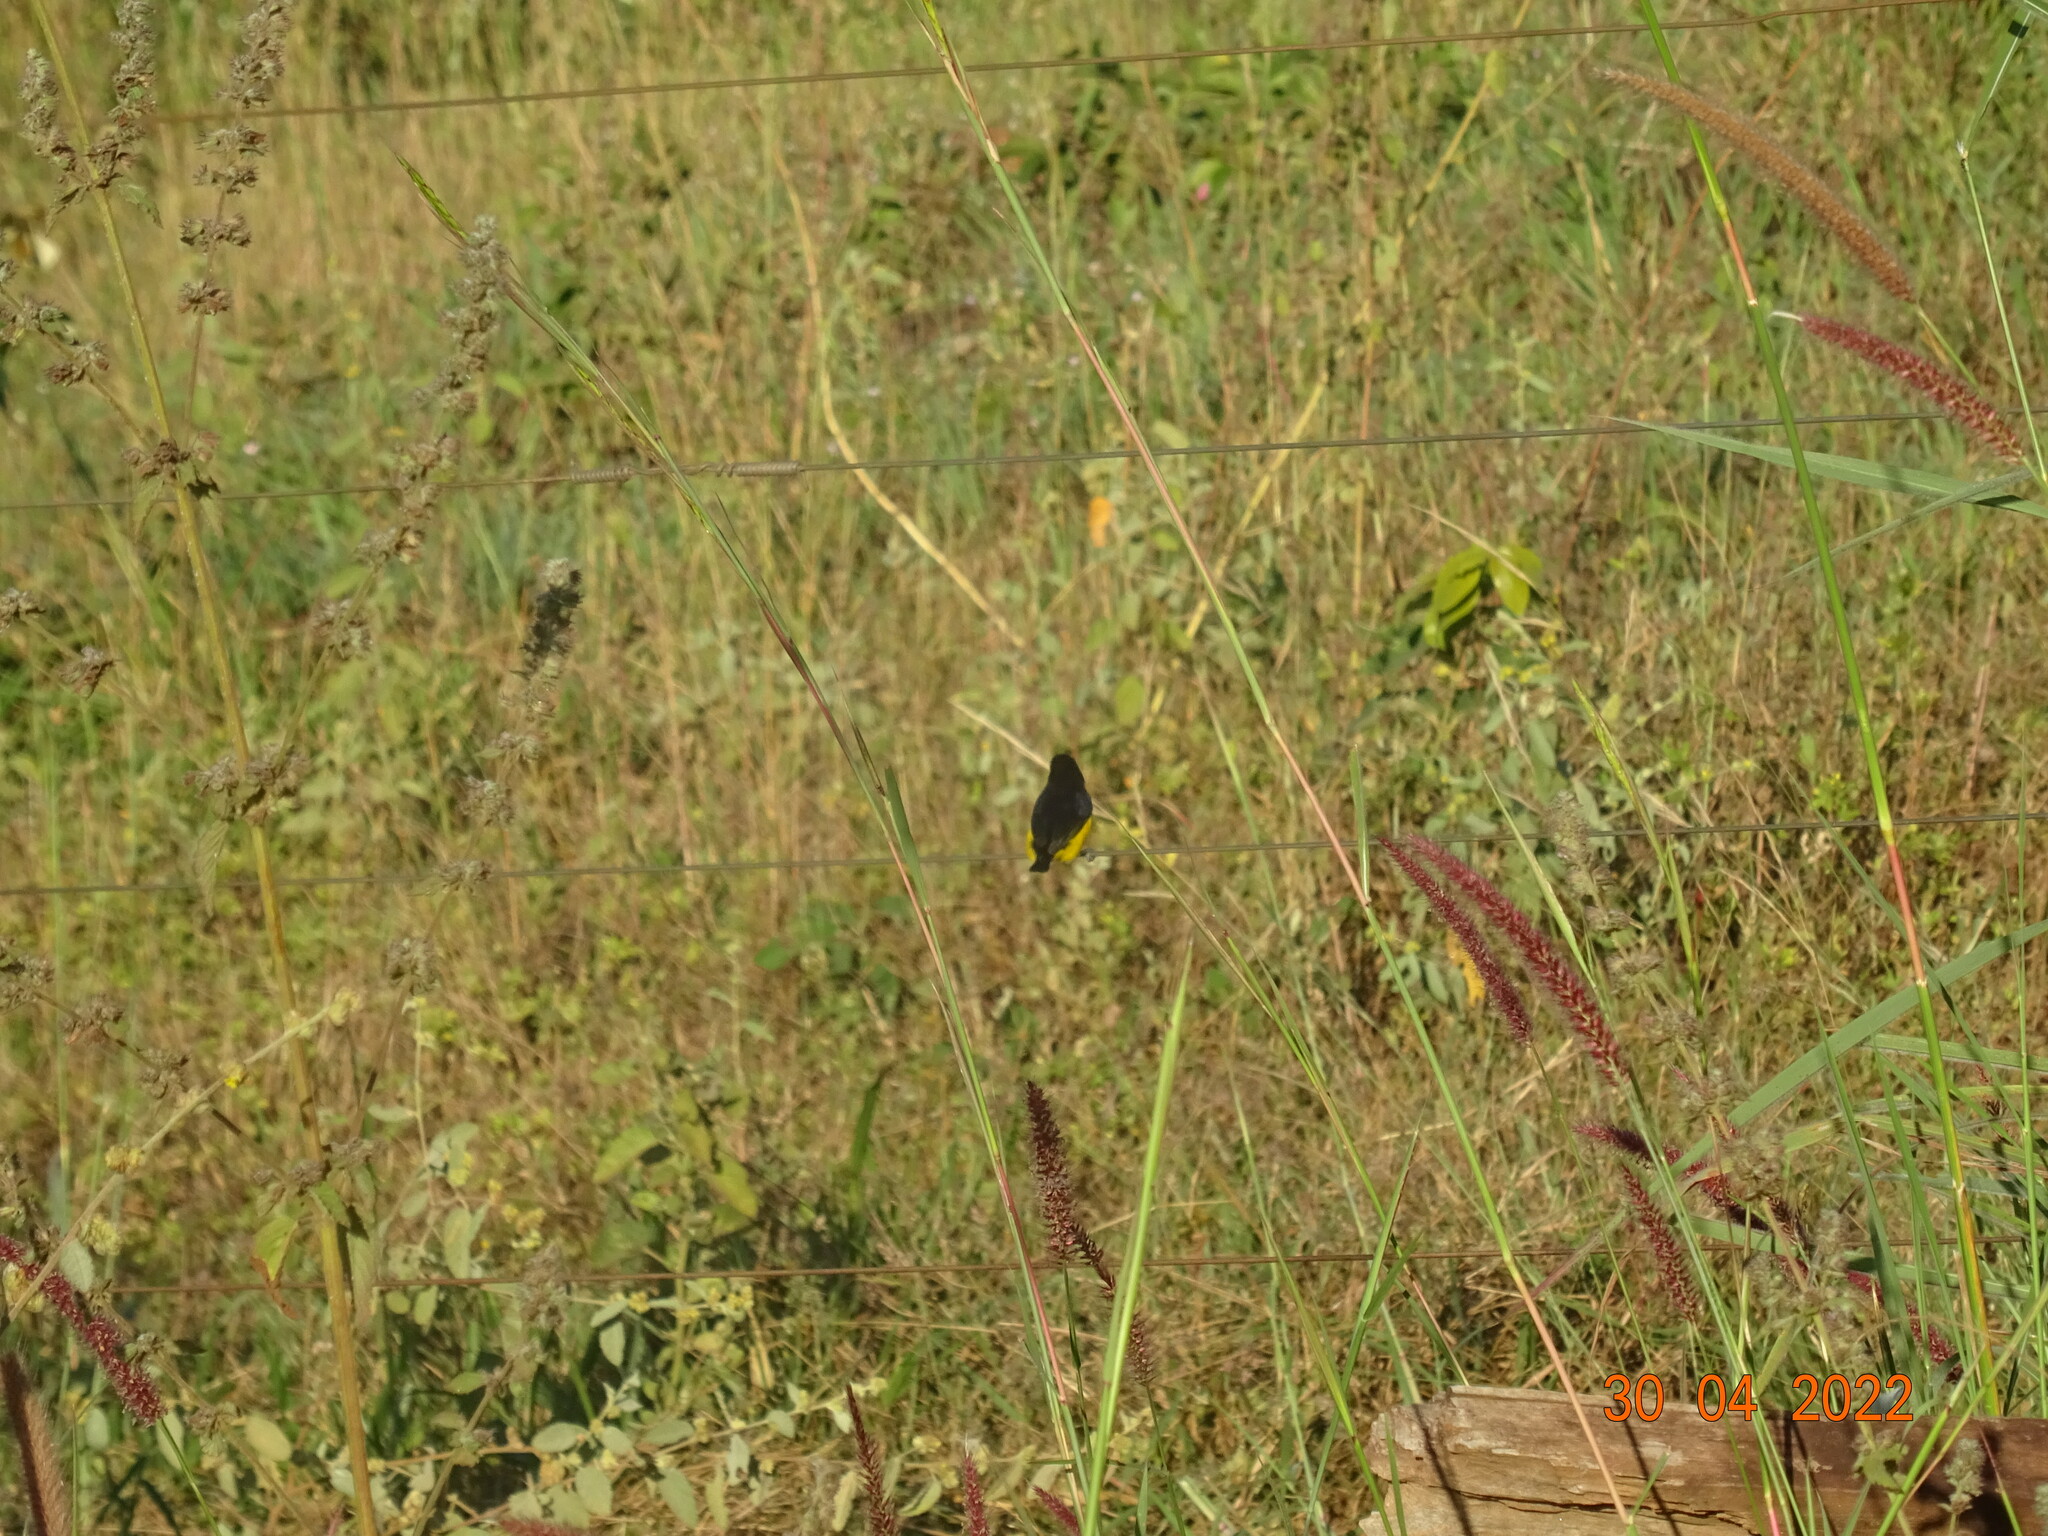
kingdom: Animalia
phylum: Chordata
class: Aves
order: Passeriformes
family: Fringillidae
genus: Euphonia
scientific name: Euphonia chlorotica
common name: Purple-throated euphonia
